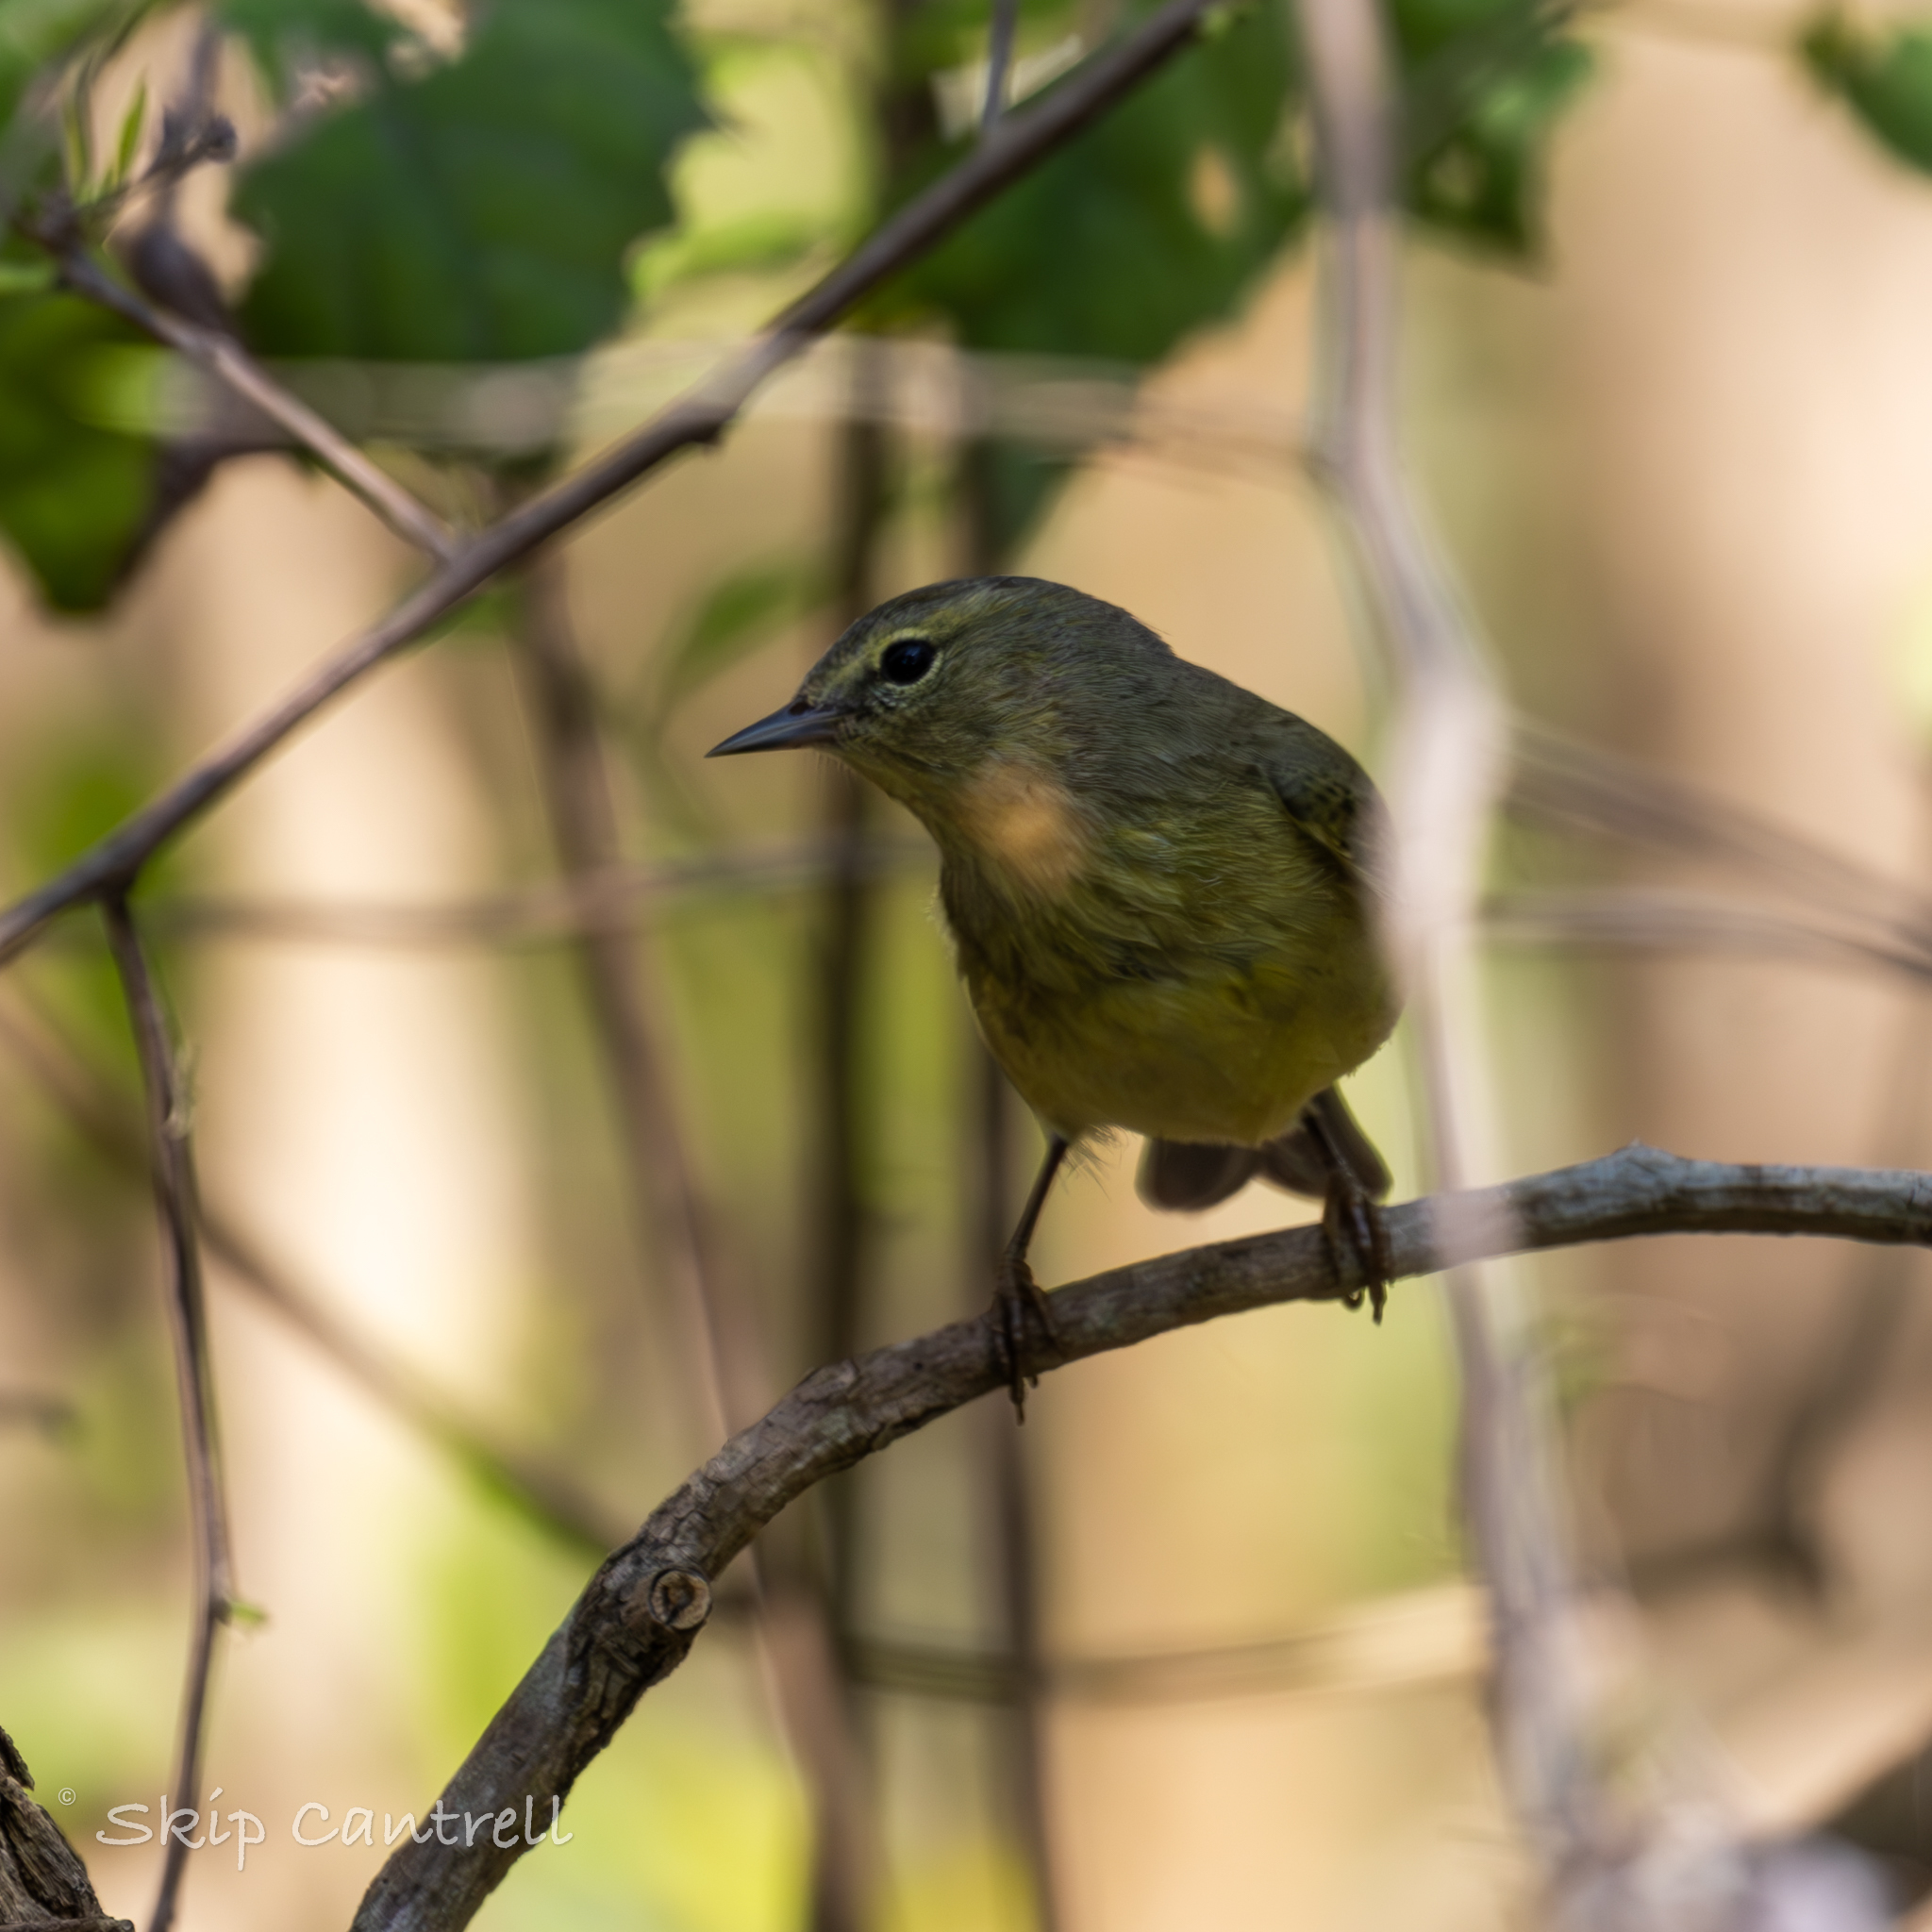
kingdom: Animalia
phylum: Chordata
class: Aves
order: Passeriformes
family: Parulidae
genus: Leiothlypis
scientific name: Leiothlypis celata
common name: Orange-crowned warbler
